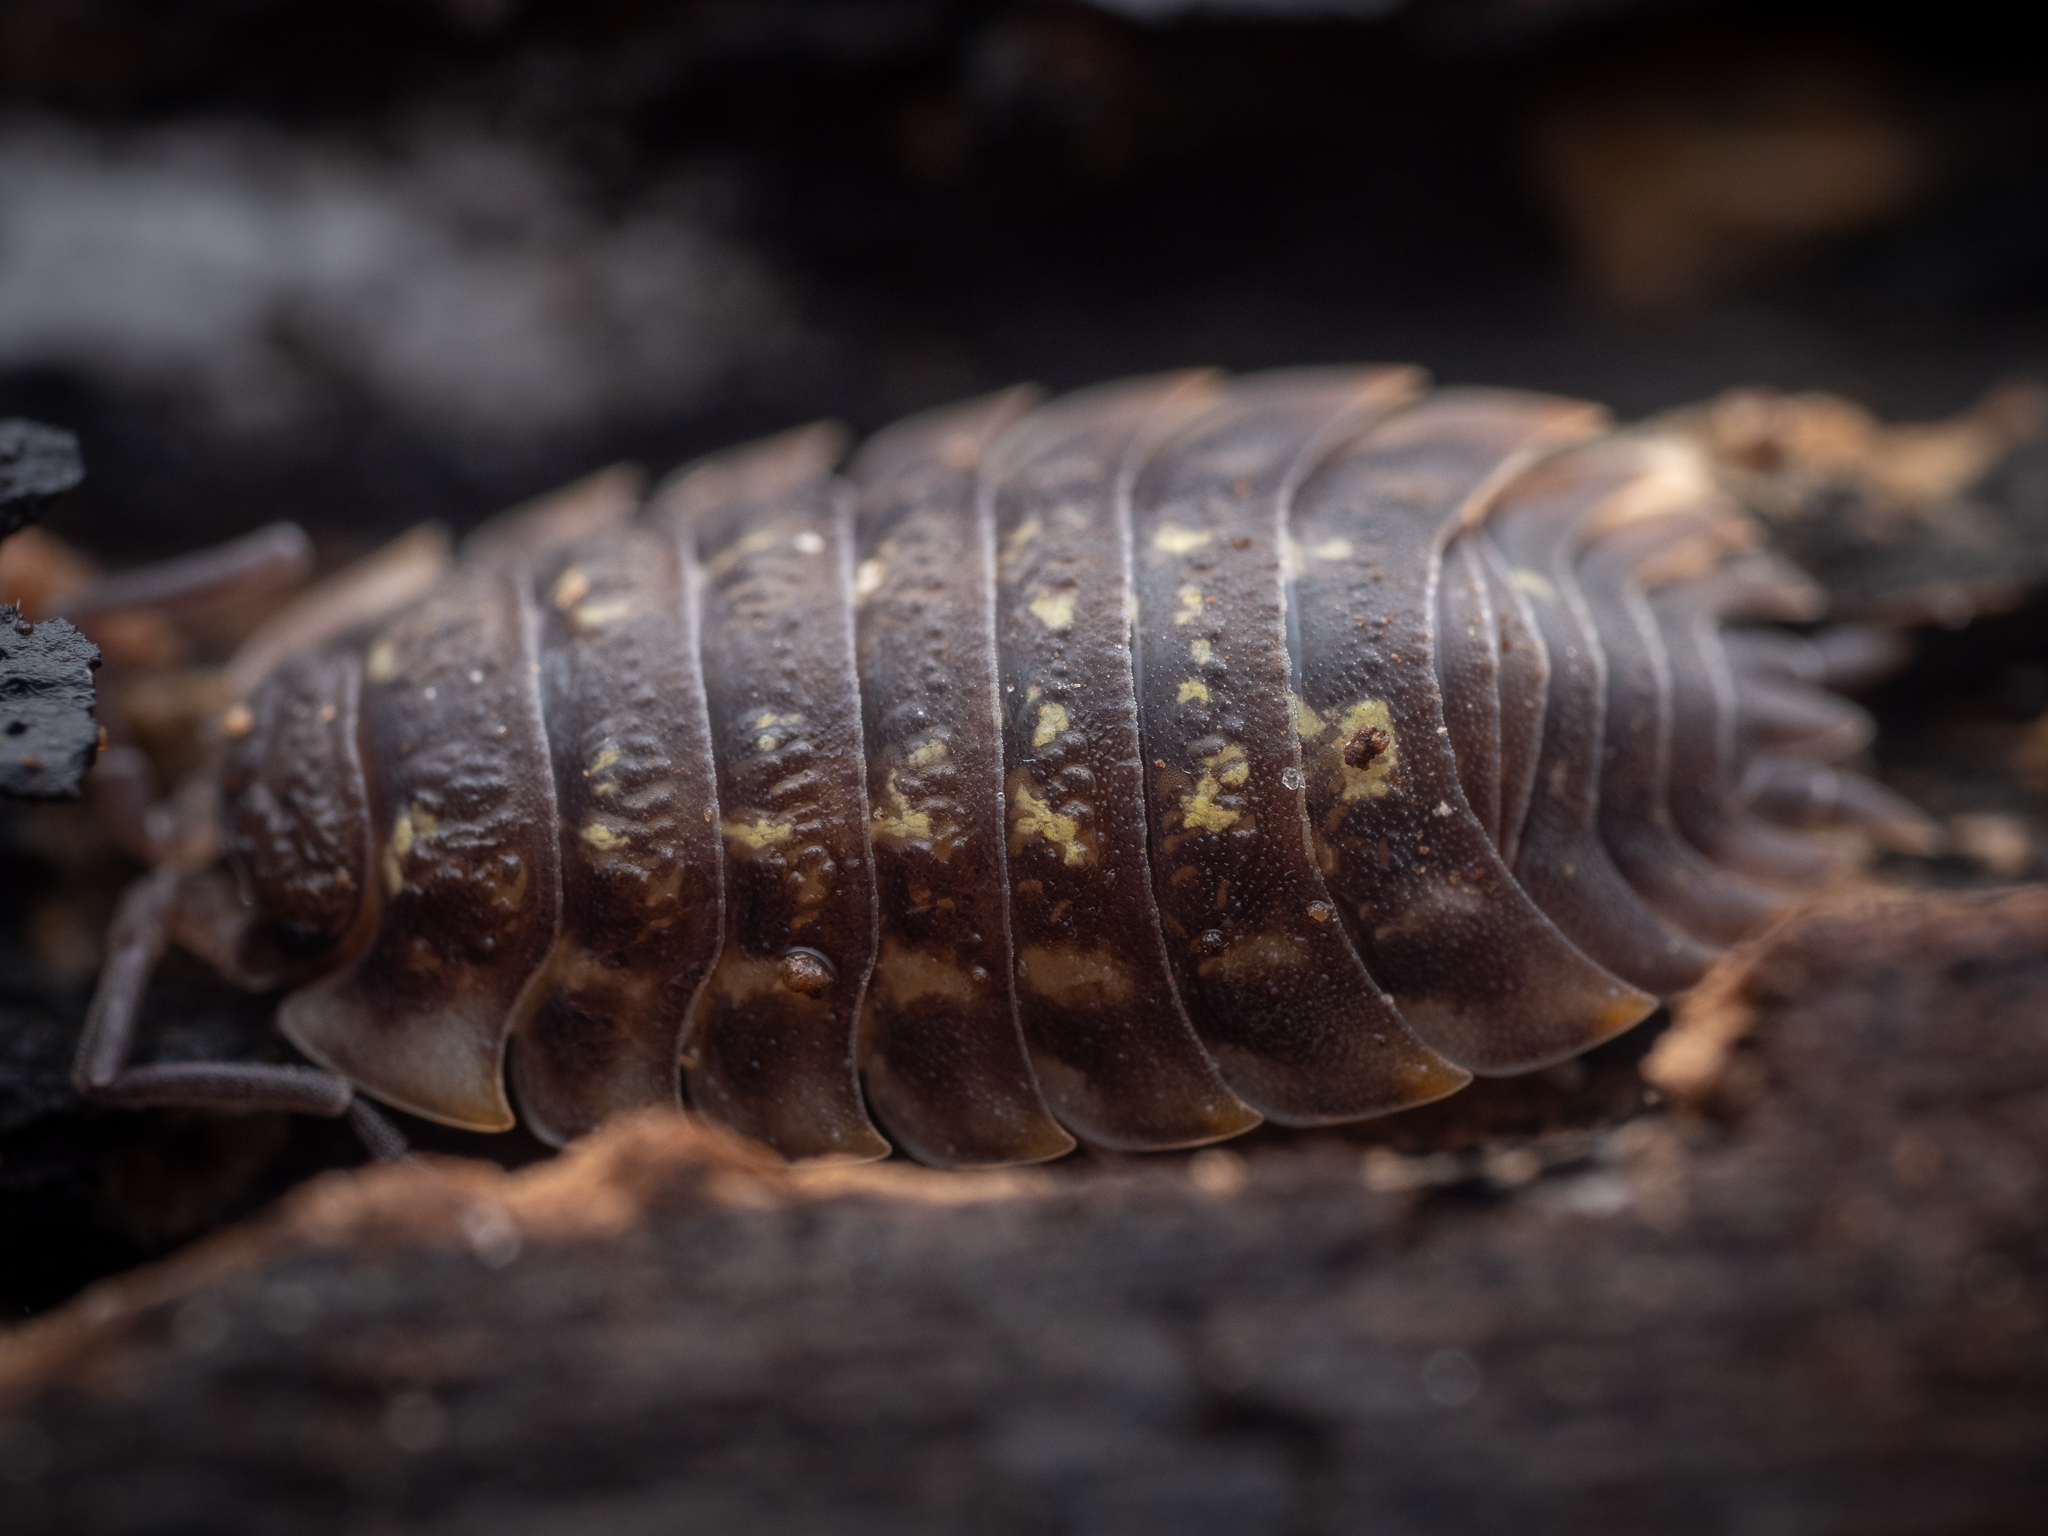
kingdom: Animalia
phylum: Arthropoda
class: Malacostraca
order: Isopoda
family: Oniscidae
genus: Oniscus
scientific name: Oniscus asellus
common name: Common shiny woodlouse
